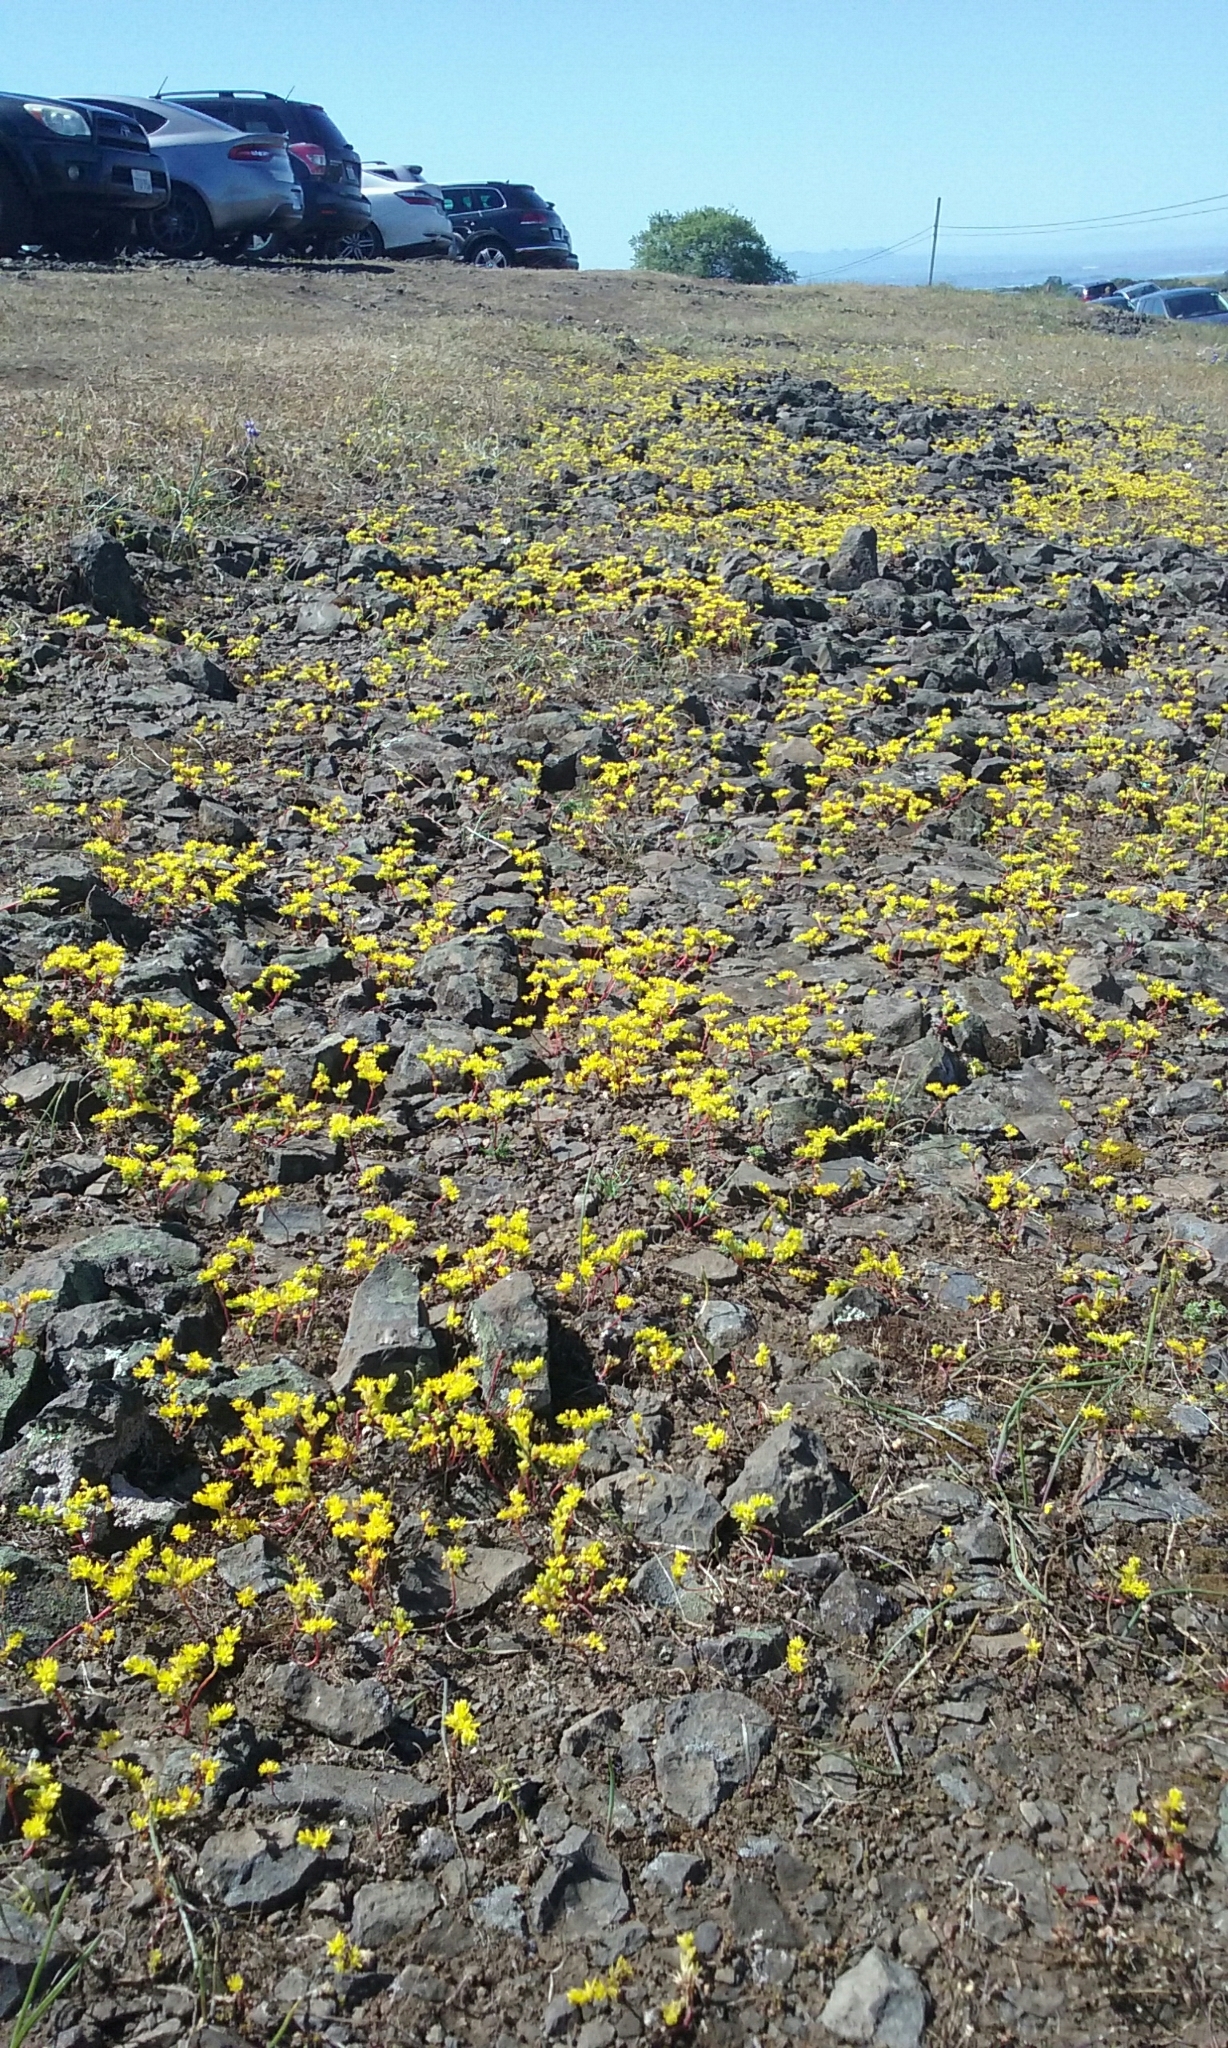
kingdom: Plantae
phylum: Tracheophyta
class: Magnoliopsida
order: Saxifragales
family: Crassulaceae
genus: Sedella
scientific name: Sedella pumila
